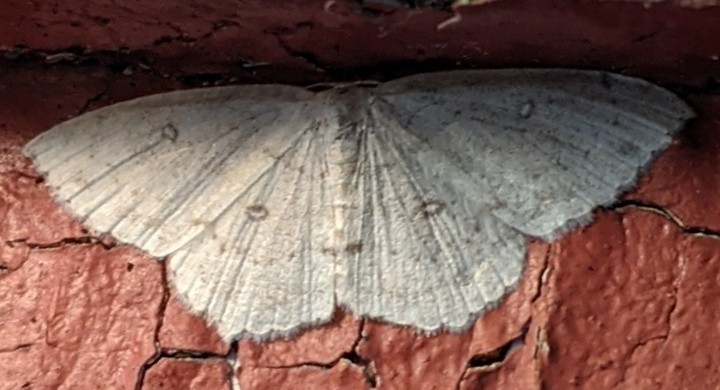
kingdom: Animalia
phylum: Arthropoda
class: Insecta
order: Lepidoptera
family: Geometridae
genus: Cyclophora
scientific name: Cyclophora pendulinaria
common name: Sweet fern geometer
